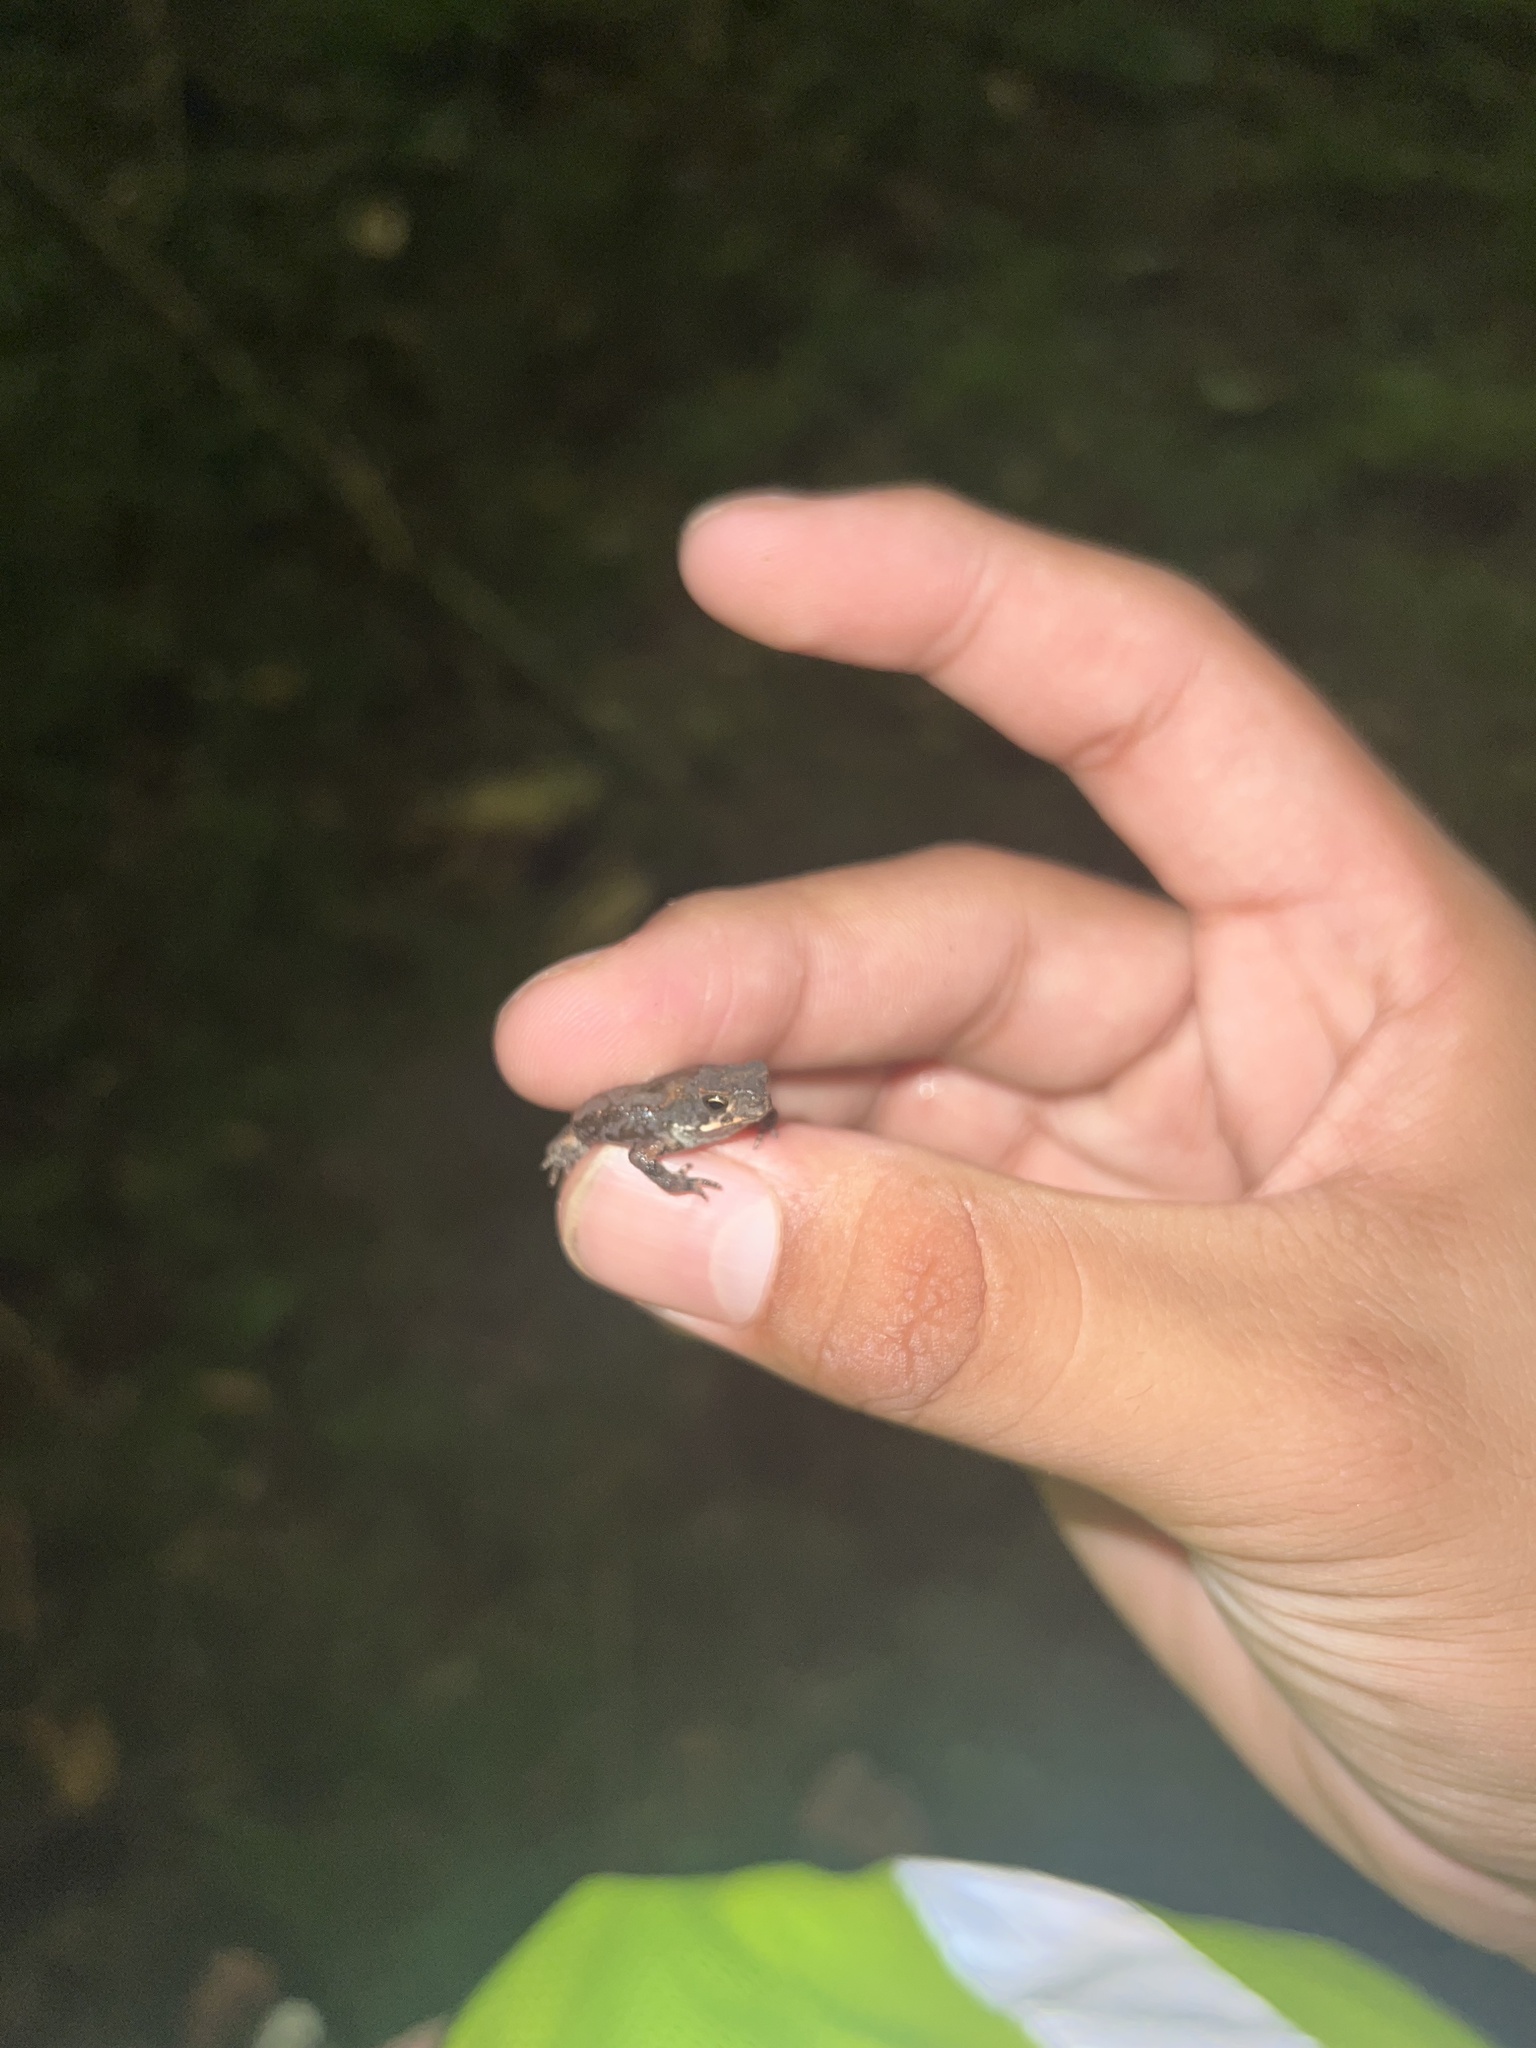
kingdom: Animalia
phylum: Chordata
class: Amphibia
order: Anura
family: Bufonidae
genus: Incilius
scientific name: Incilius nebulifer
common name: Gulf coast toad
